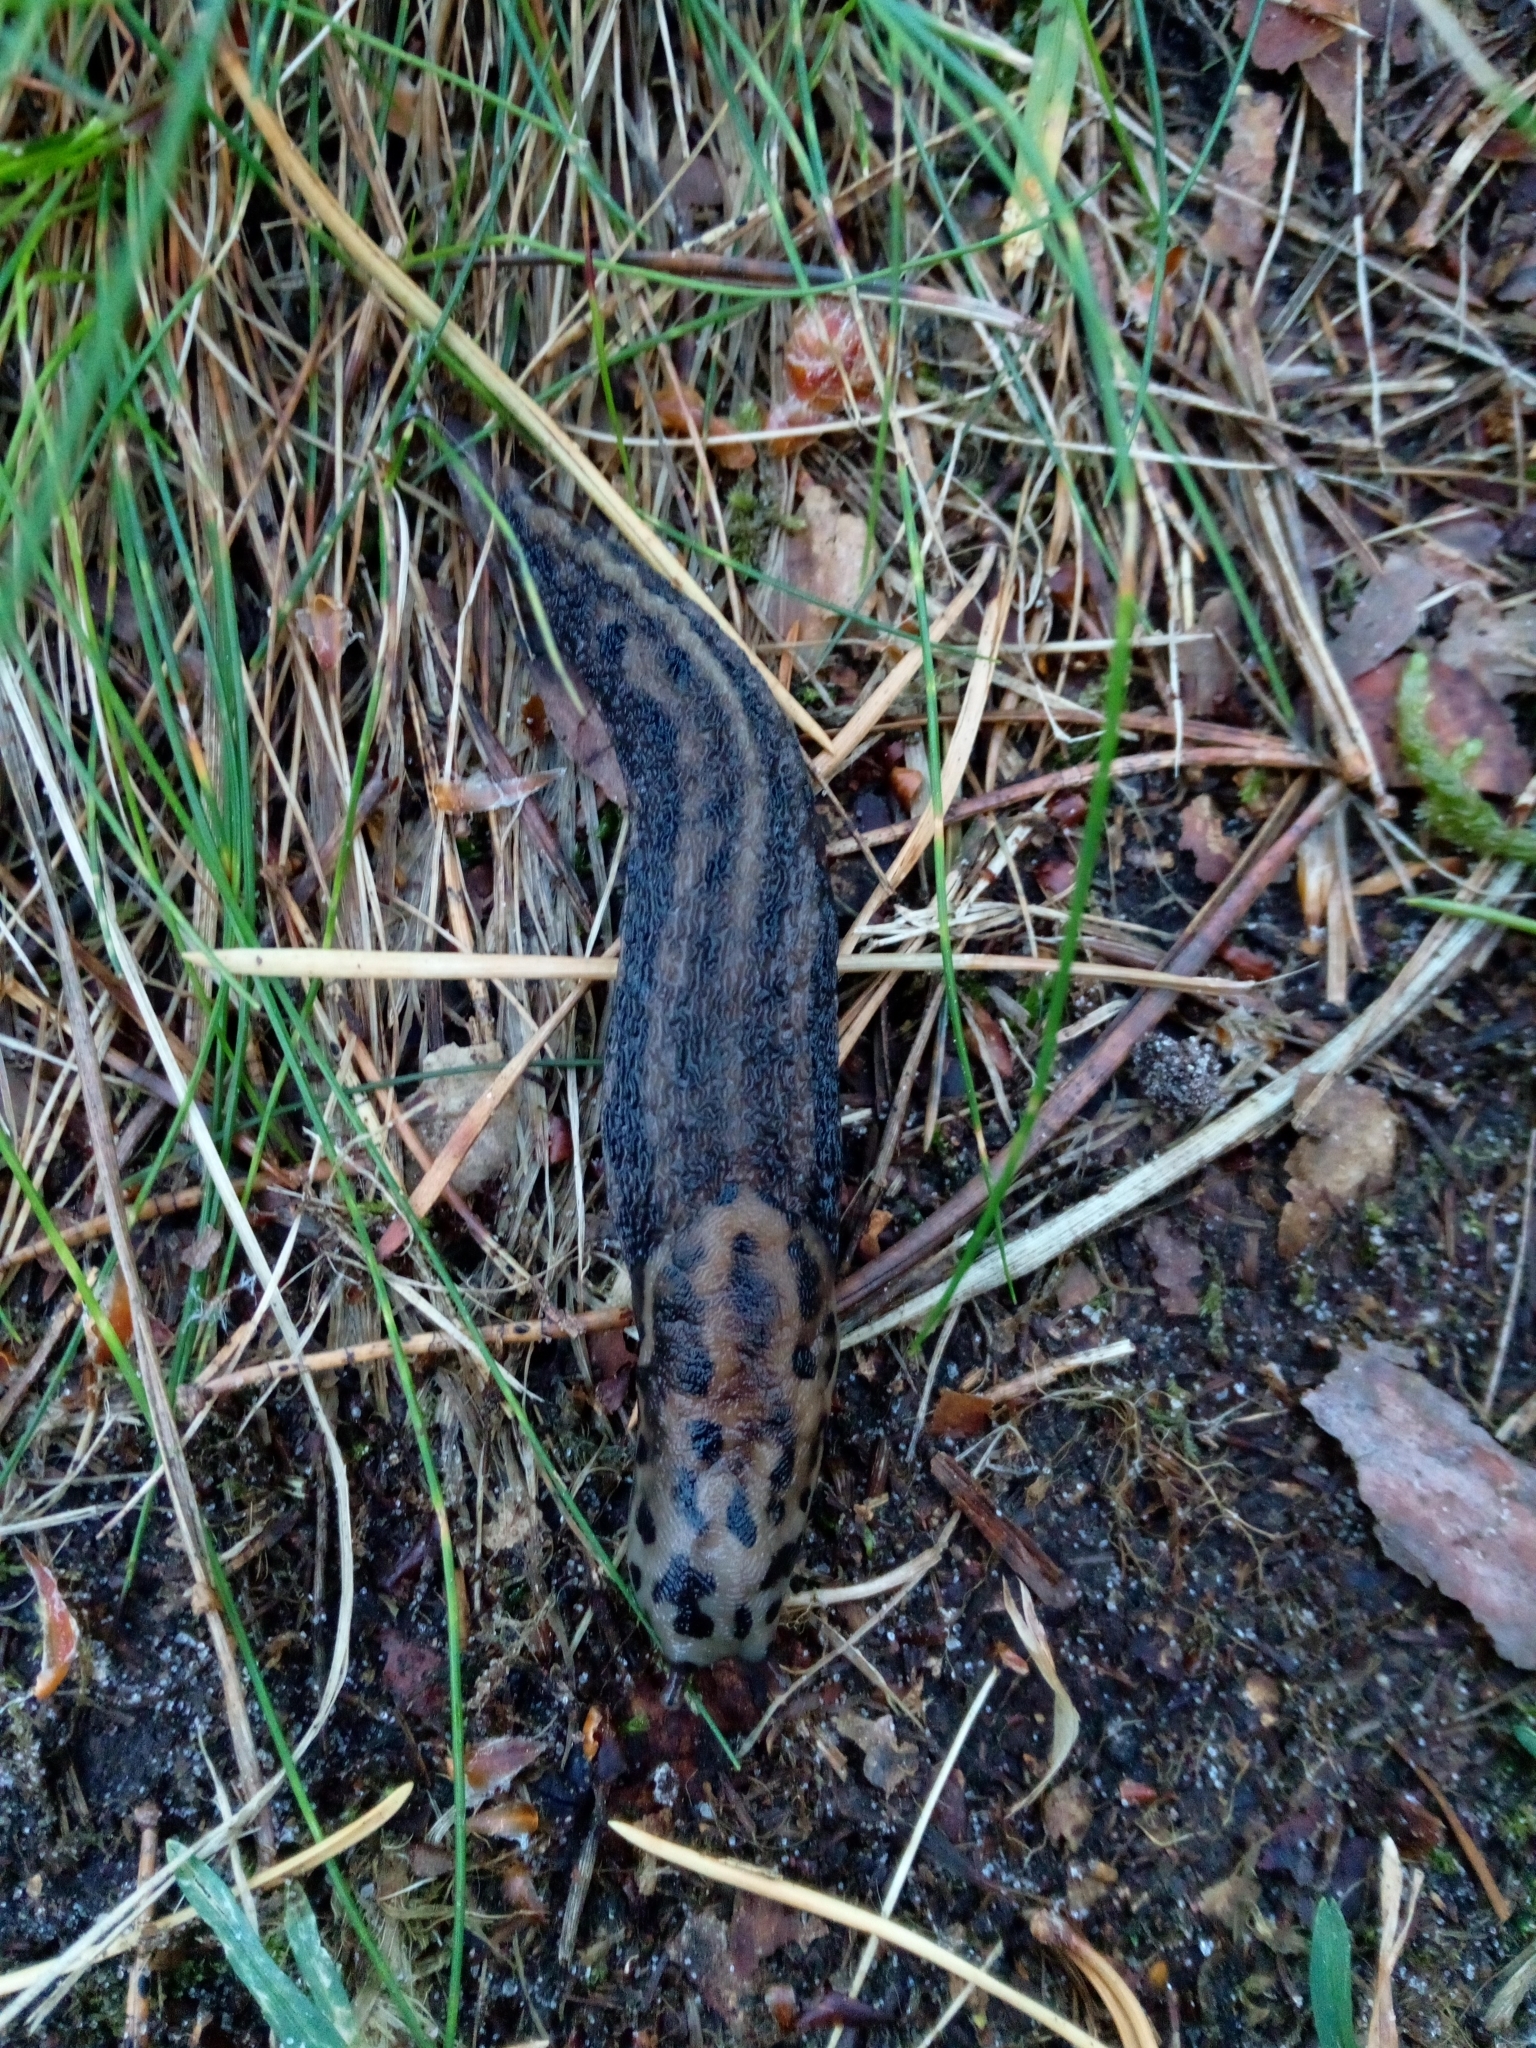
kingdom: Animalia
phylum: Mollusca
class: Gastropoda
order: Stylommatophora
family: Limacidae
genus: Limax
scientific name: Limax maximus
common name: Great grey slug
